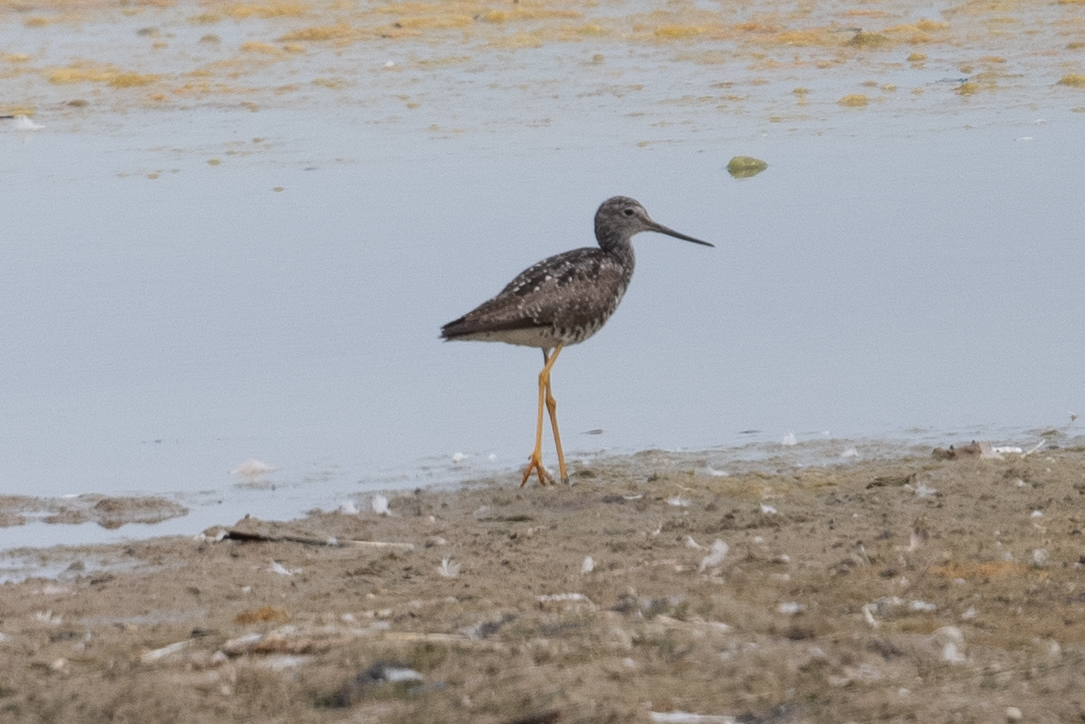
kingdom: Animalia
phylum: Chordata
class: Aves
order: Charadriiformes
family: Scolopacidae
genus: Tringa
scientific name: Tringa melanoleuca
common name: Greater yellowlegs
